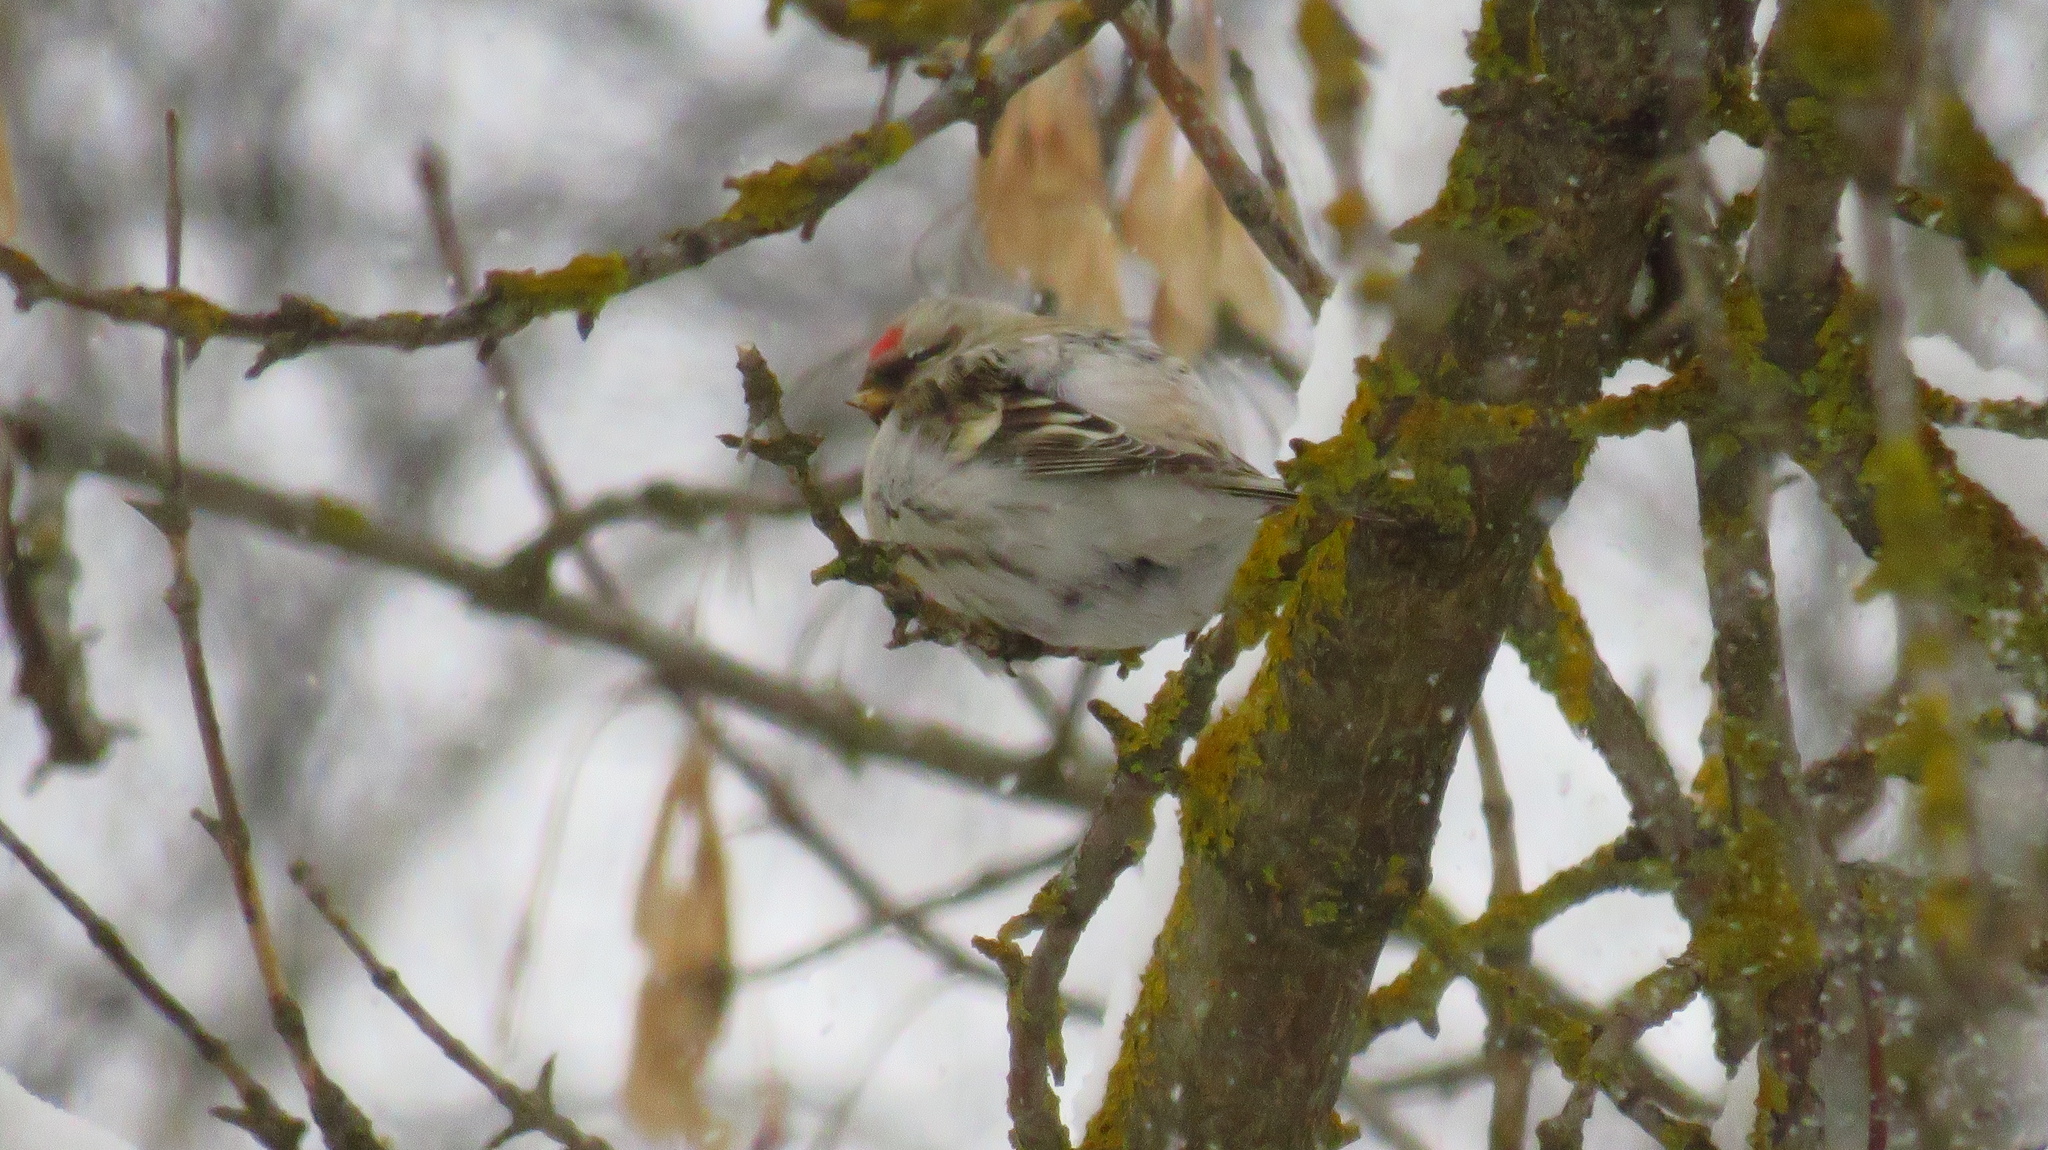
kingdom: Animalia
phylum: Chordata
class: Aves
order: Passeriformes
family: Fringillidae
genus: Acanthis
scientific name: Acanthis flammea
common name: Common redpoll
